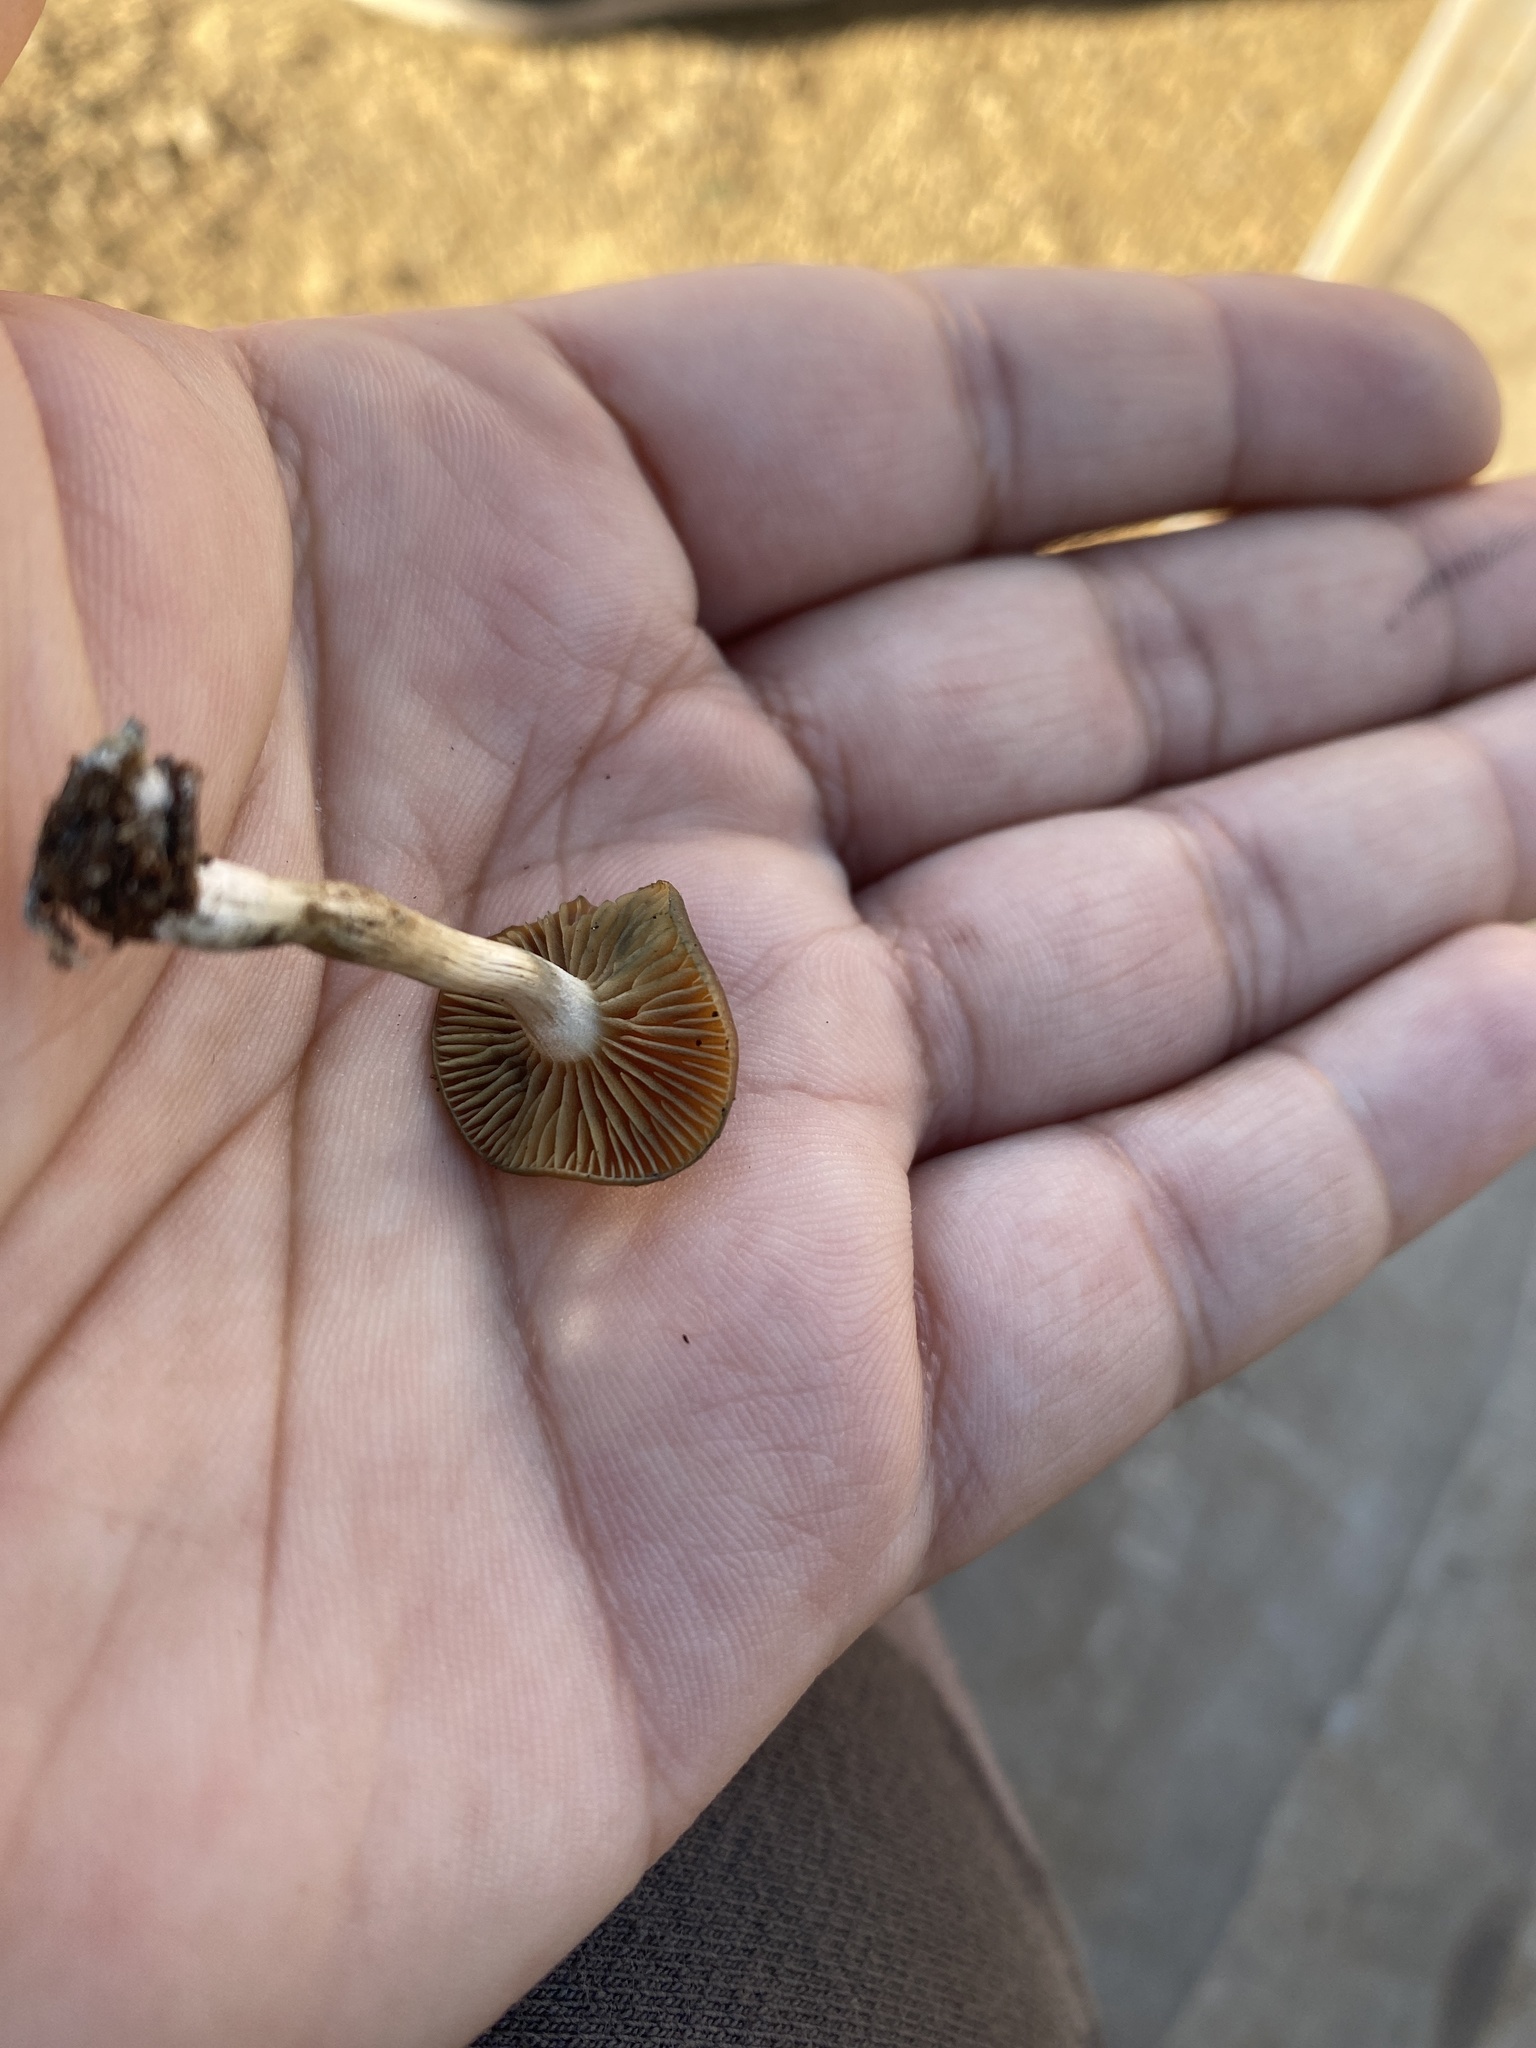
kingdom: Fungi
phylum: Basidiomycota
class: Agaricomycetes
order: Agaricales
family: Hymenogastraceae
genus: Psilocybe
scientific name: Psilocybe cyanescens
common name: Blueleg brownie
